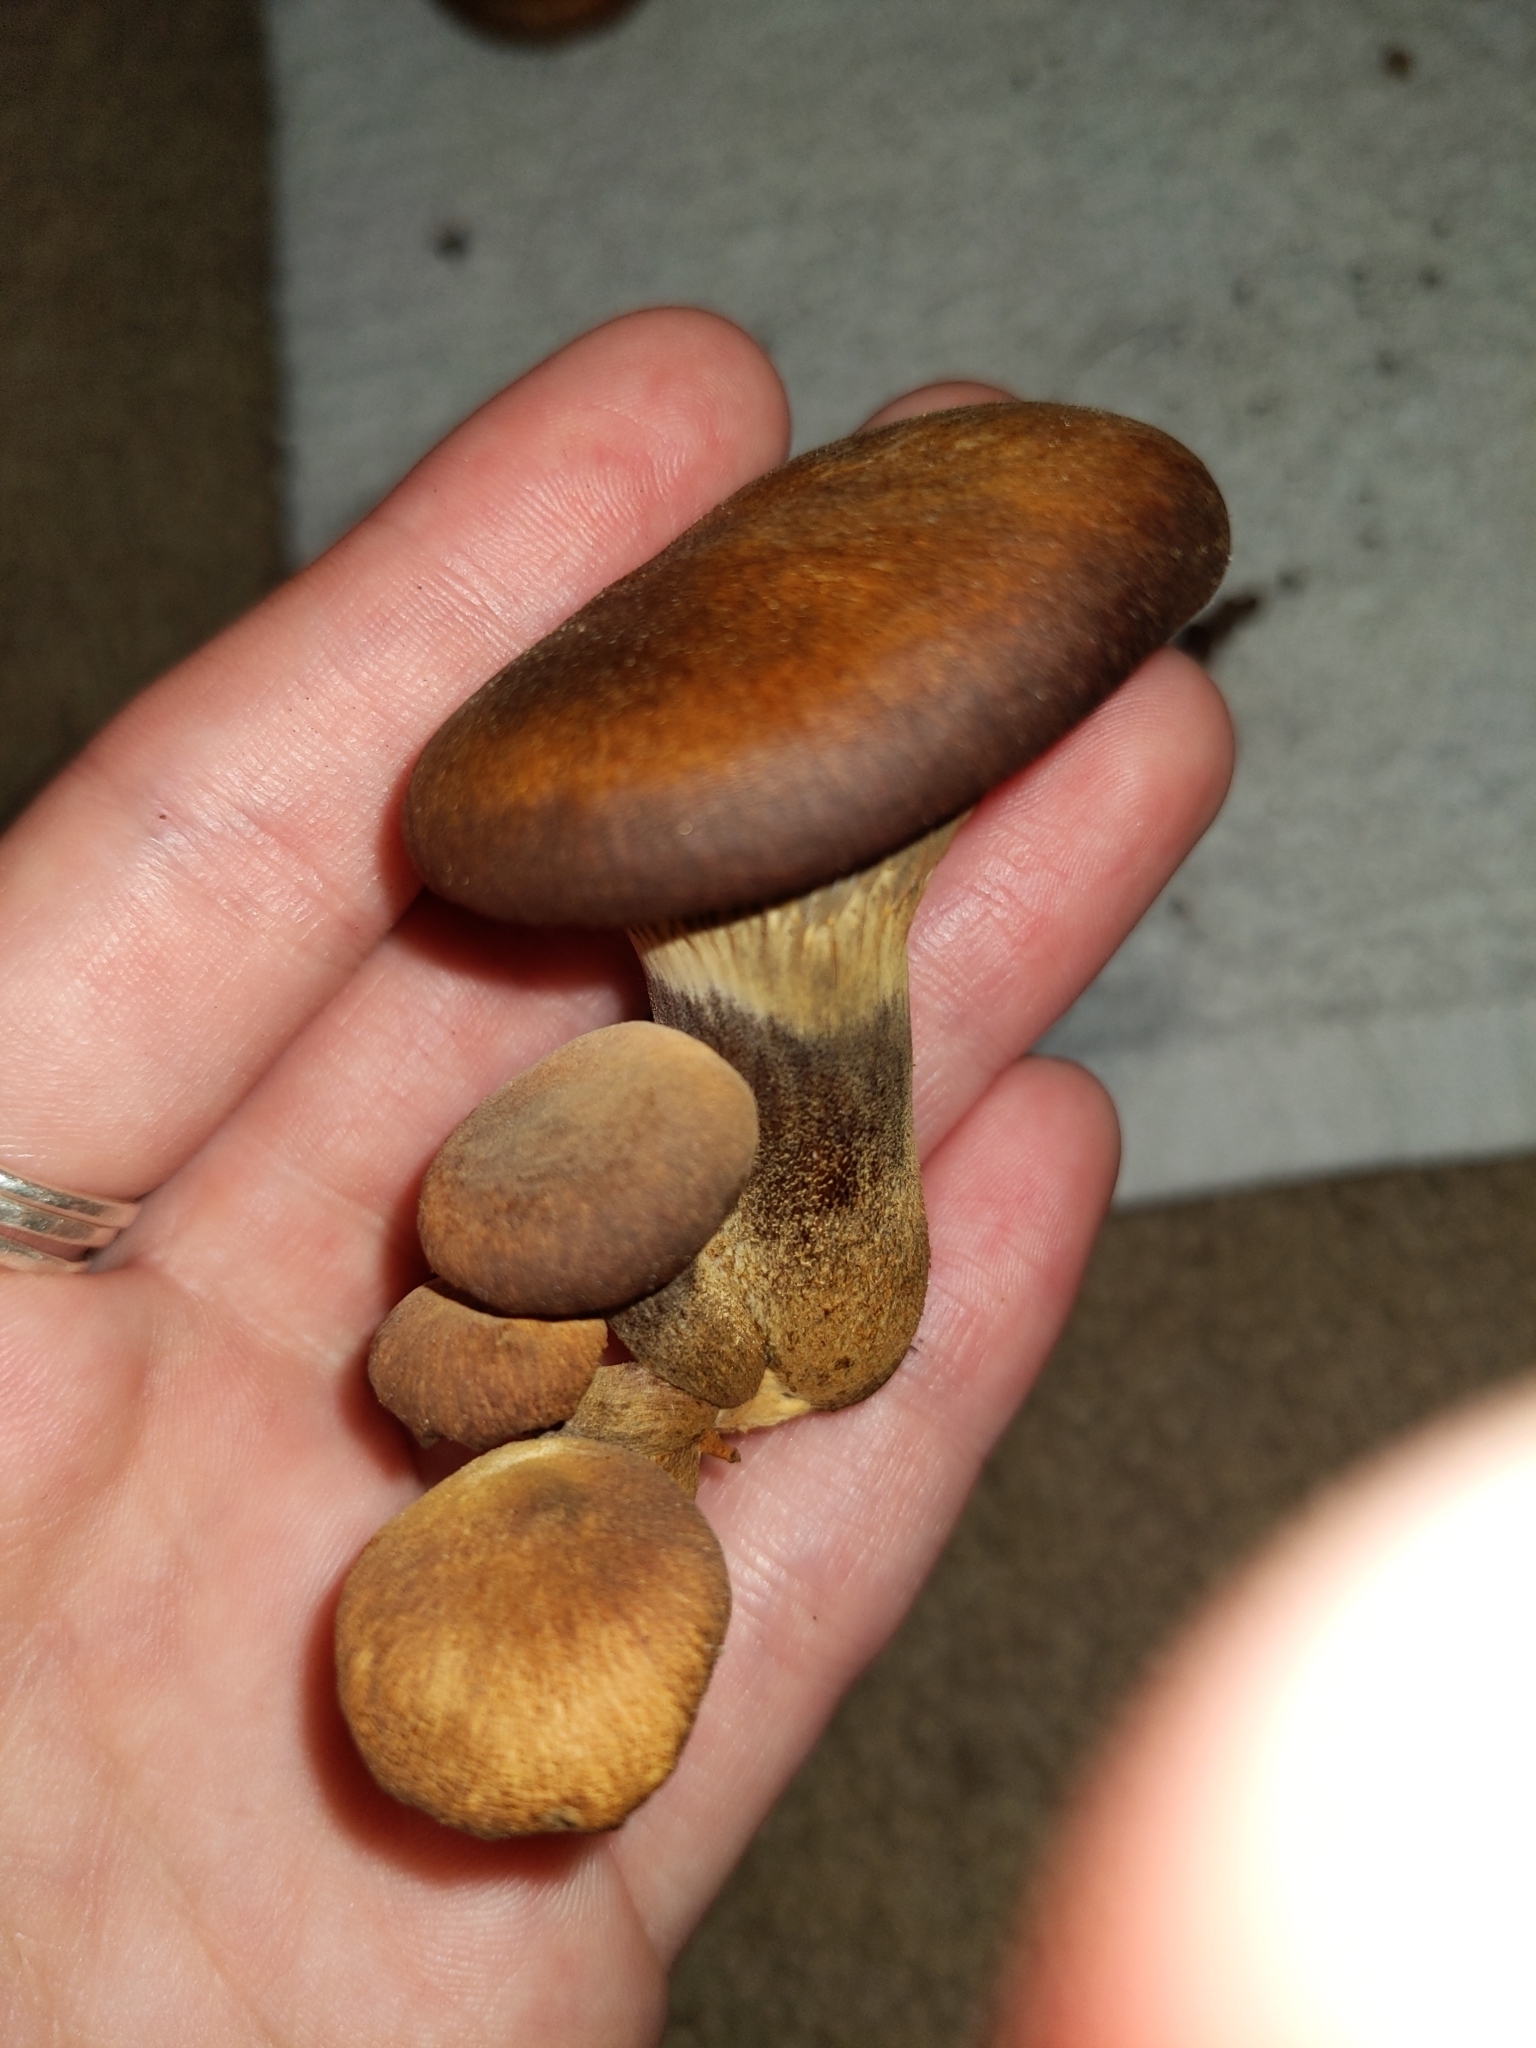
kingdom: Fungi
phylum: Basidiomycota
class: Agaricomycetes
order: Agaricales
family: Omphalotaceae
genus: Omphalotus
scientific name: Omphalotus olivascens
